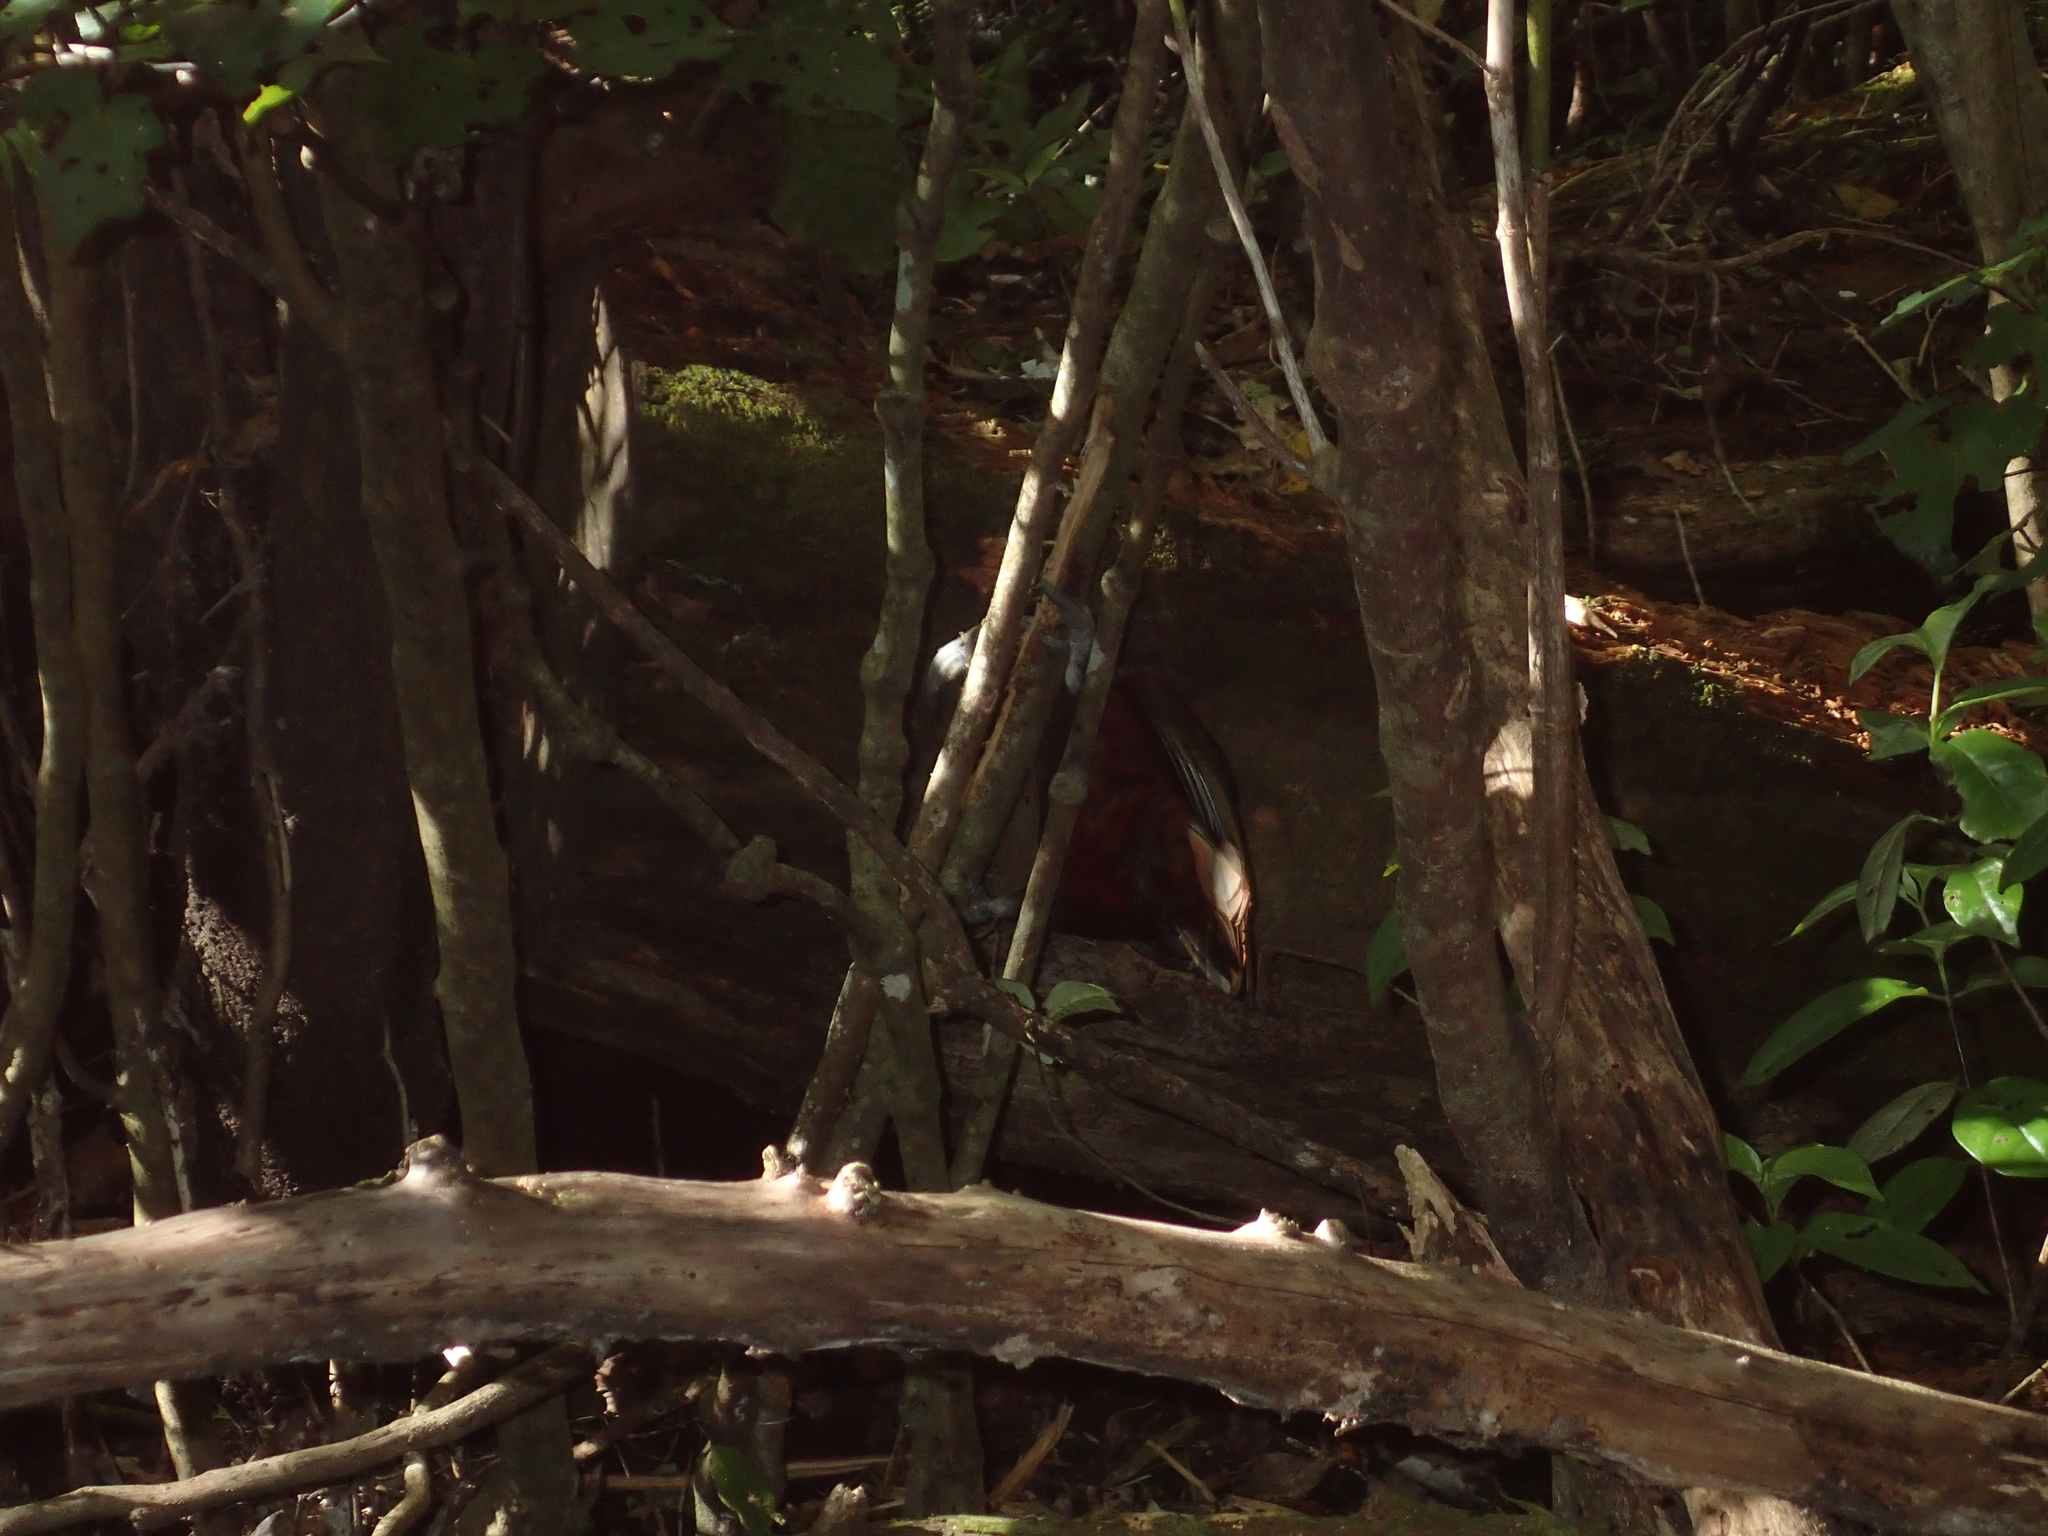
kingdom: Animalia
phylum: Chordata
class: Aves
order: Psittaciformes
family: Psittacidae
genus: Nestor
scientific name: Nestor meridionalis
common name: New zealand kaka
